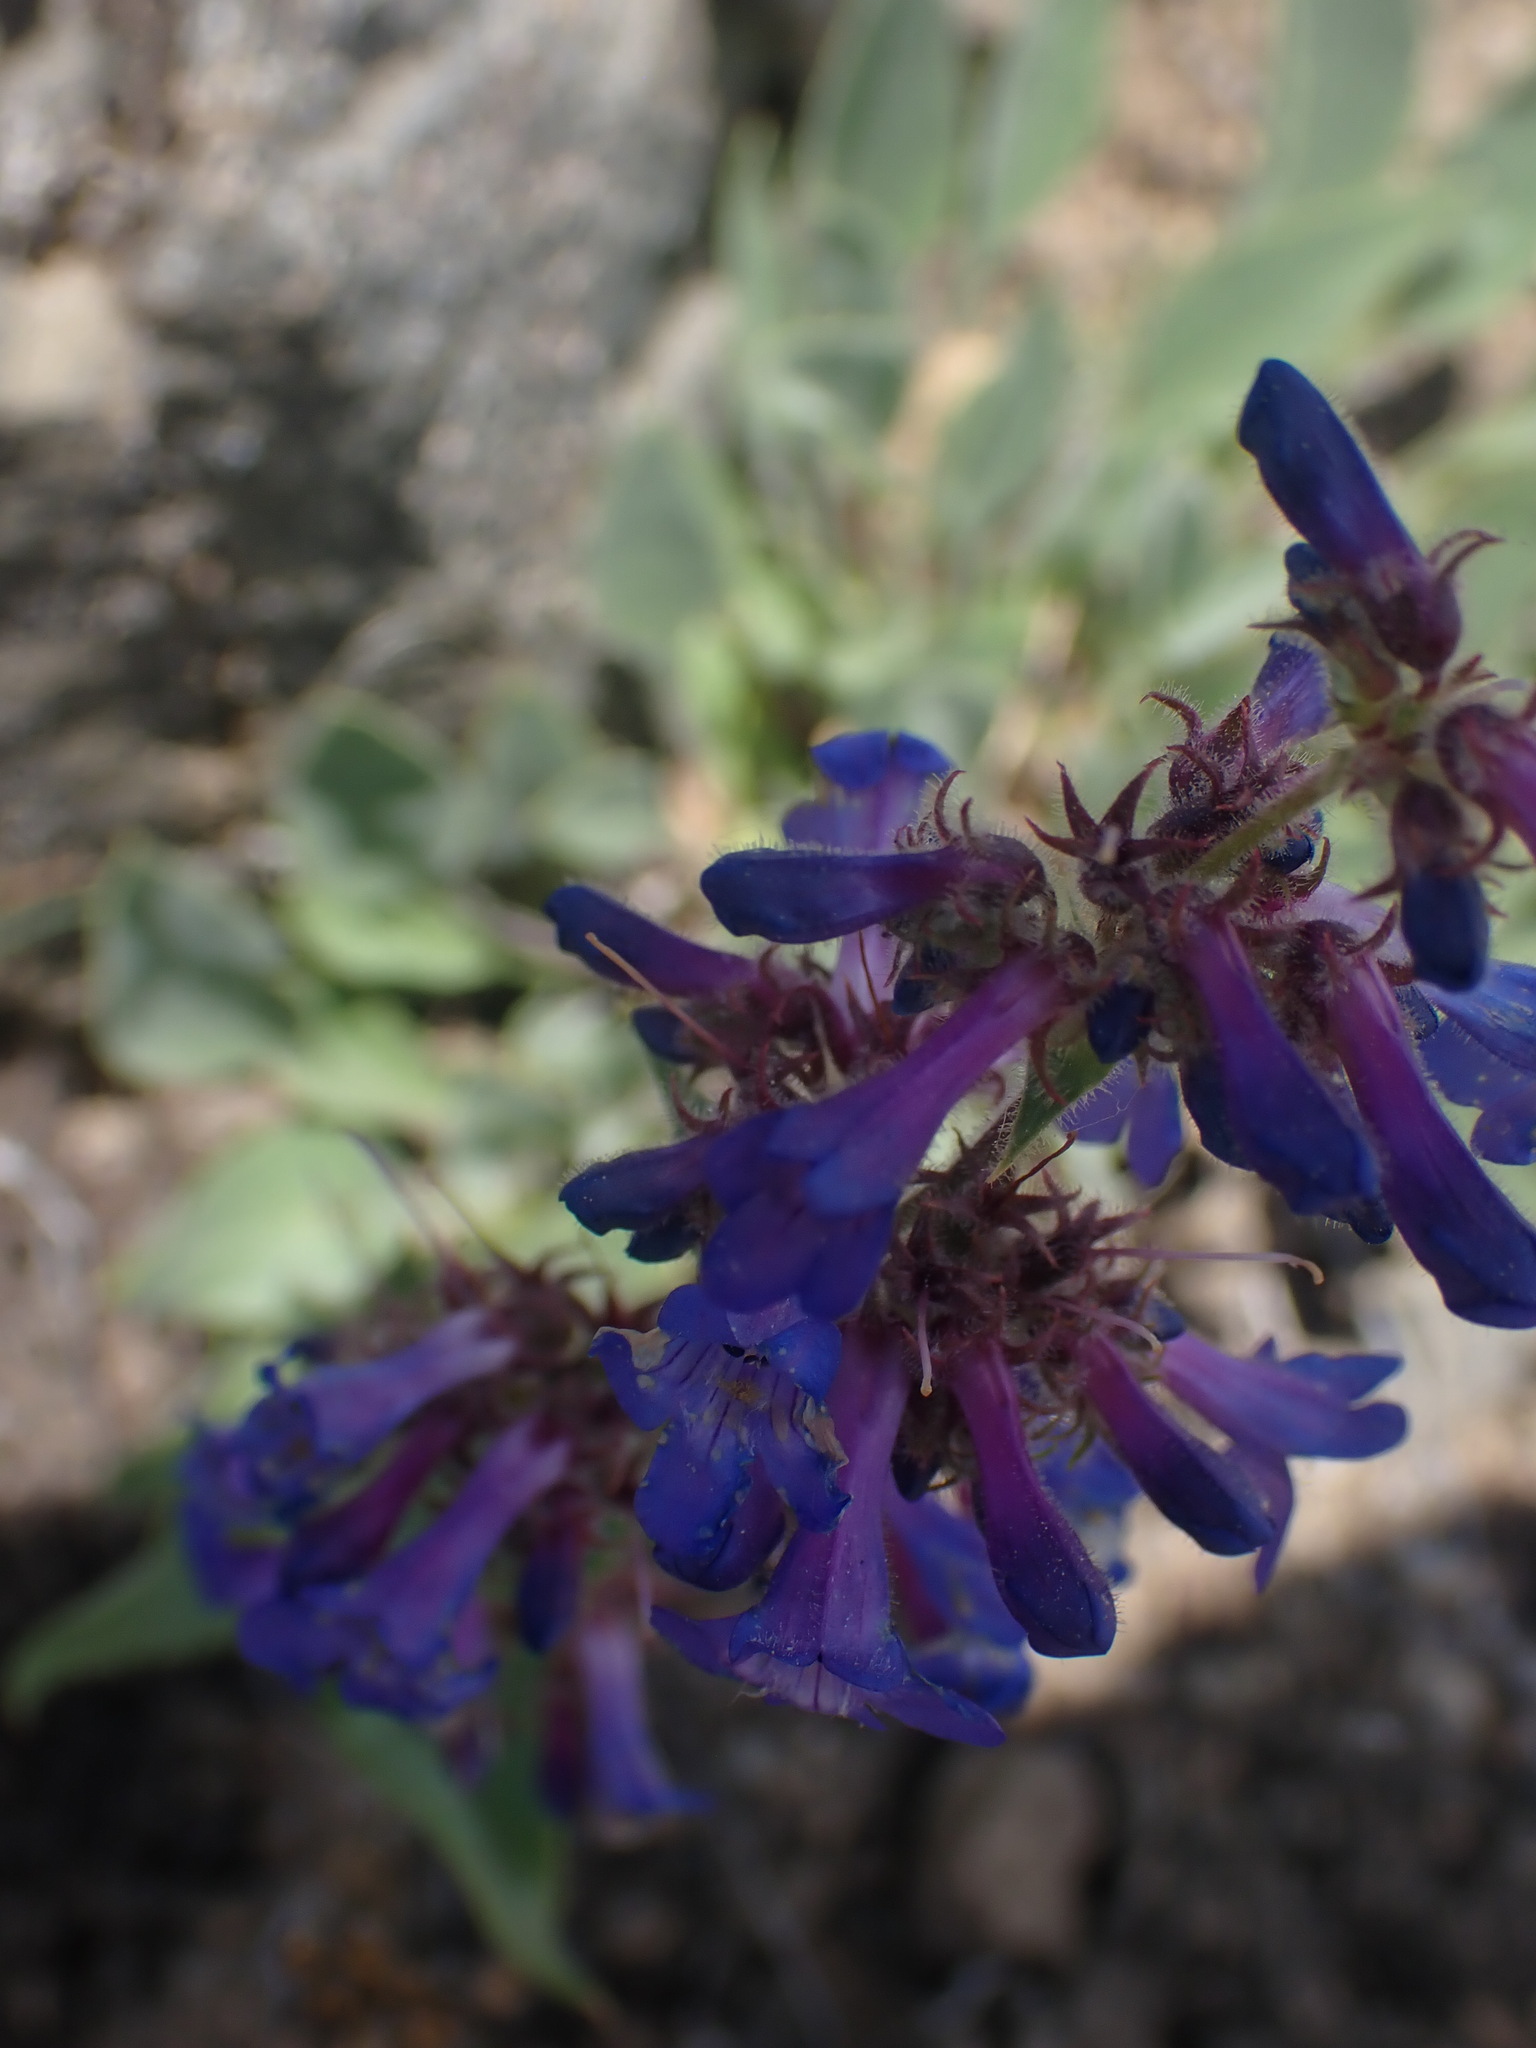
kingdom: Plantae
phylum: Tracheophyta
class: Magnoliopsida
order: Lamiales
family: Plantaginaceae
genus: Penstemon
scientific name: Penstemon pruinosus
